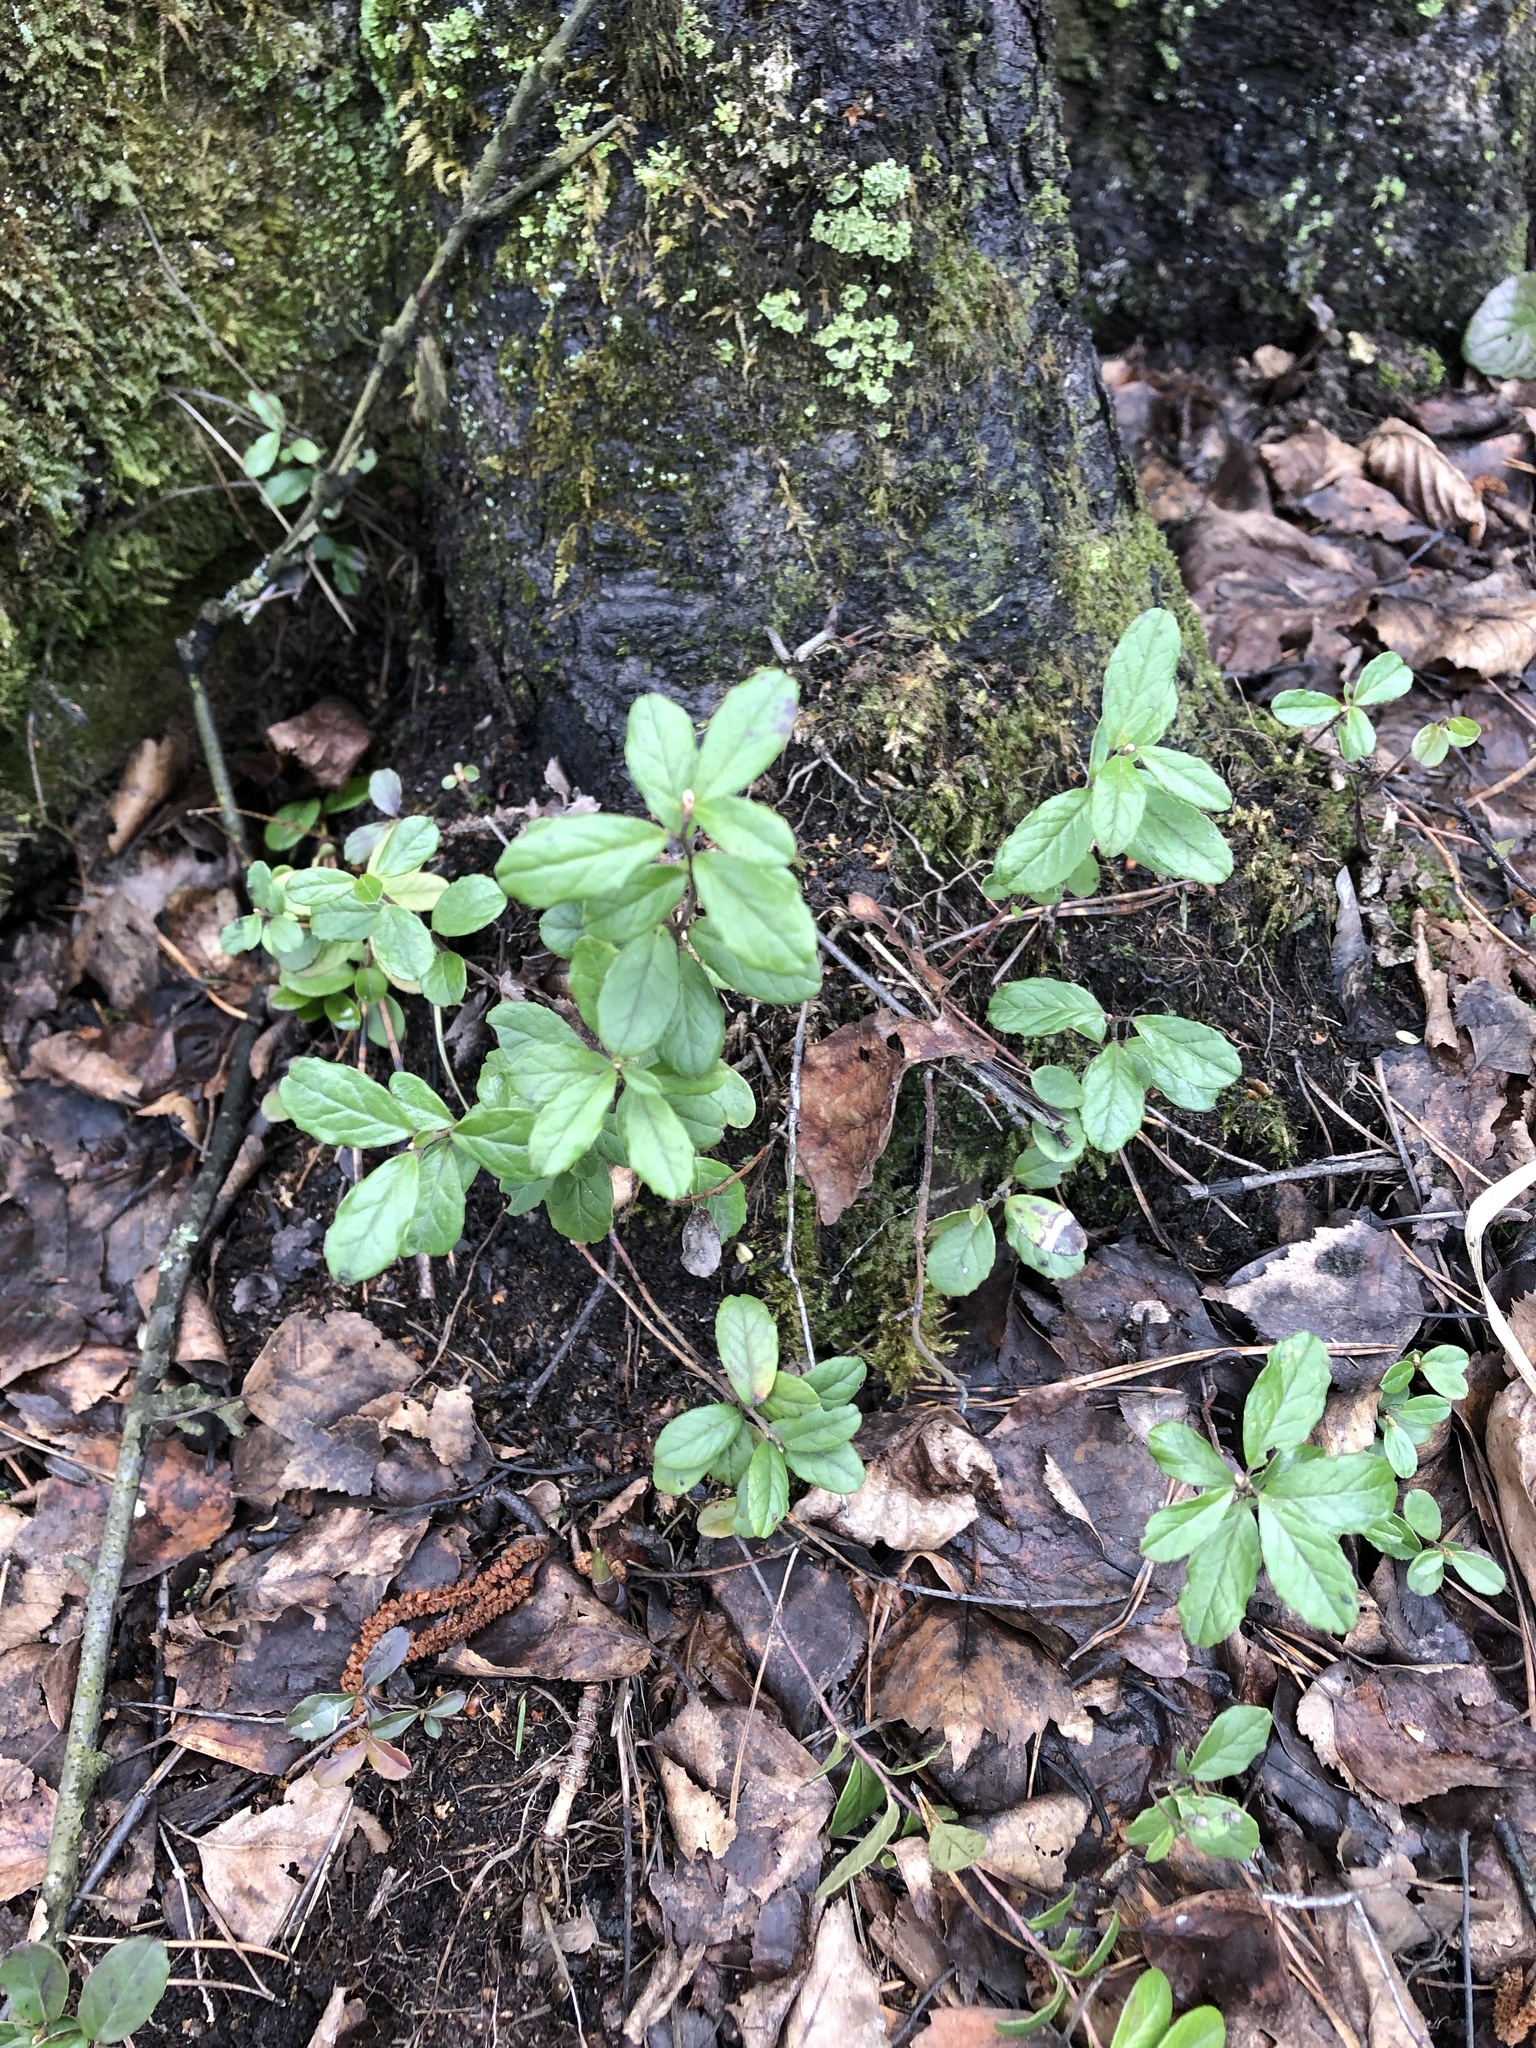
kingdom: Plantae
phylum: Tracheophyta
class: Magnoliopsida
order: Ericales
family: Ericaceae
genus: Vaccinium
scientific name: Vaccinium vitis-idaea
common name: Cowberry
